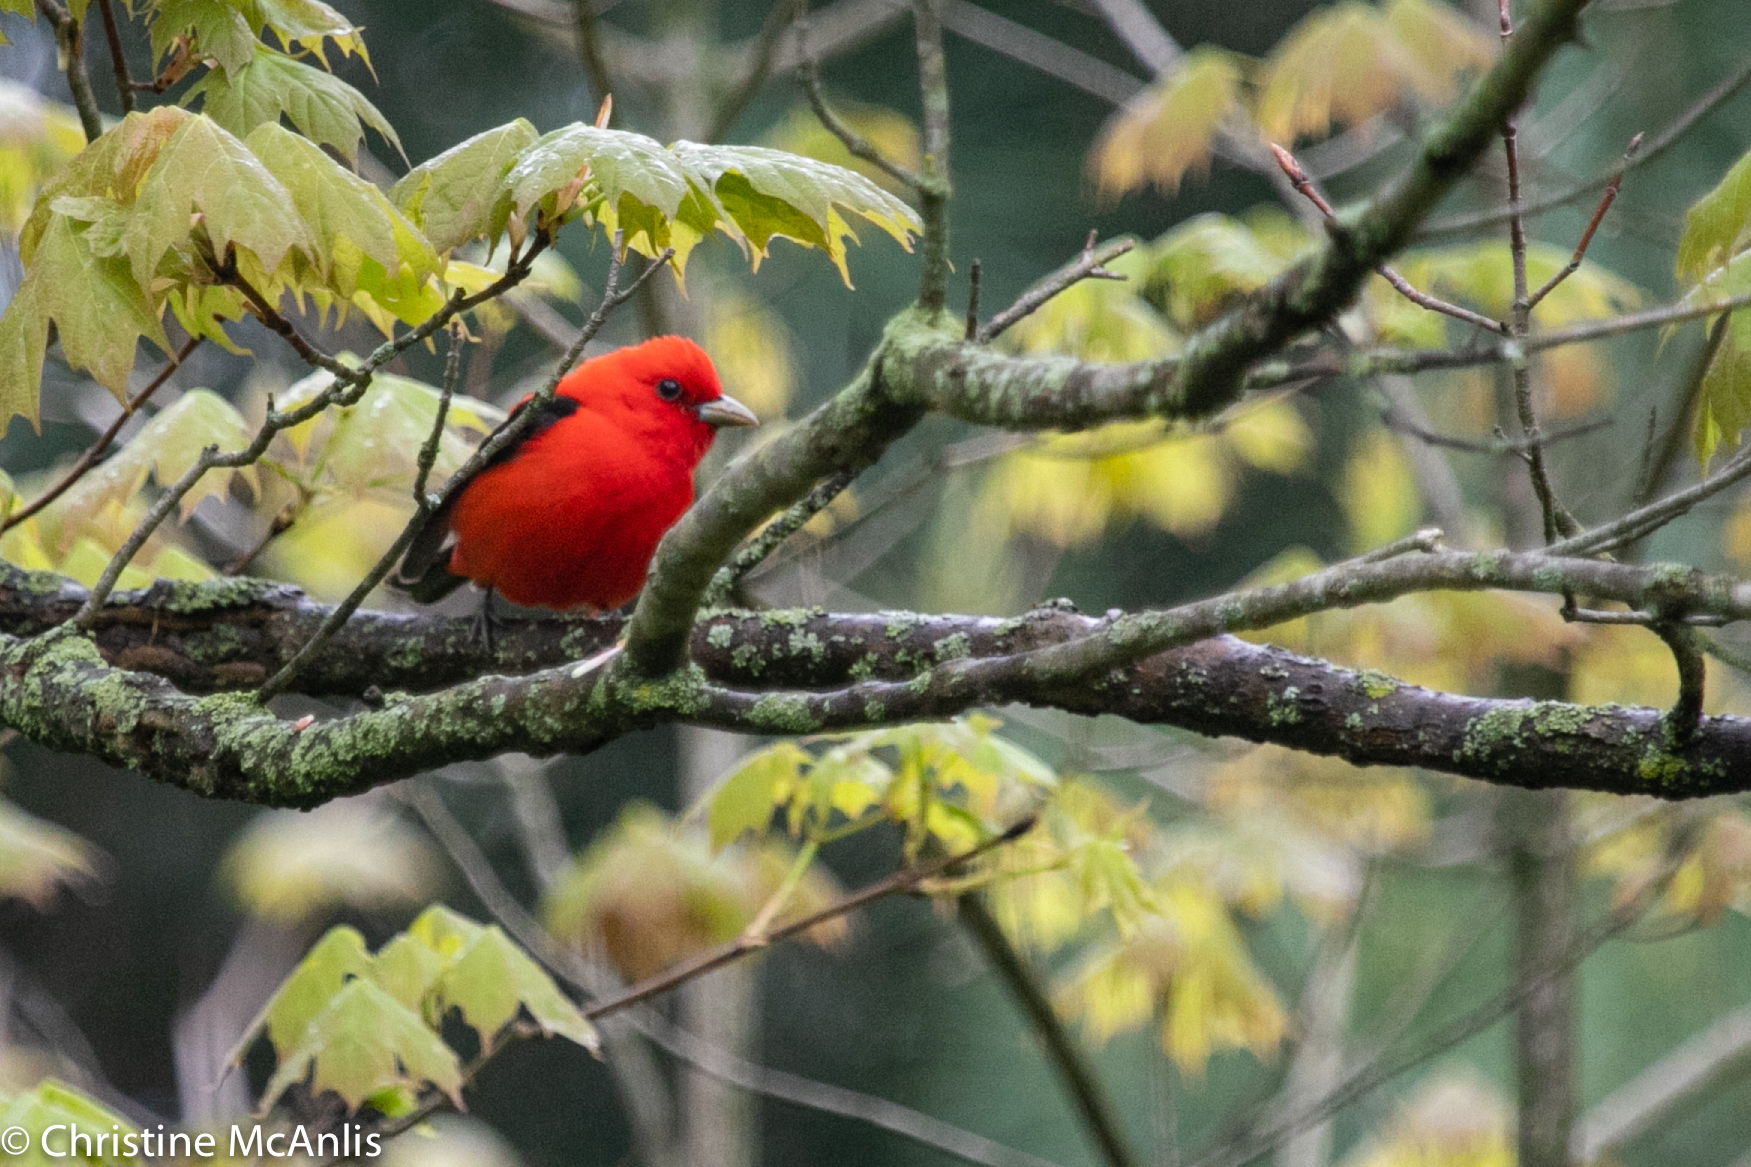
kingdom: Animalia
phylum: Chordata
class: Aves
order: Passeriformes
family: Cardinalidae
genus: Piranga
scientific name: Piranga olivacea
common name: Scarlet tanager
